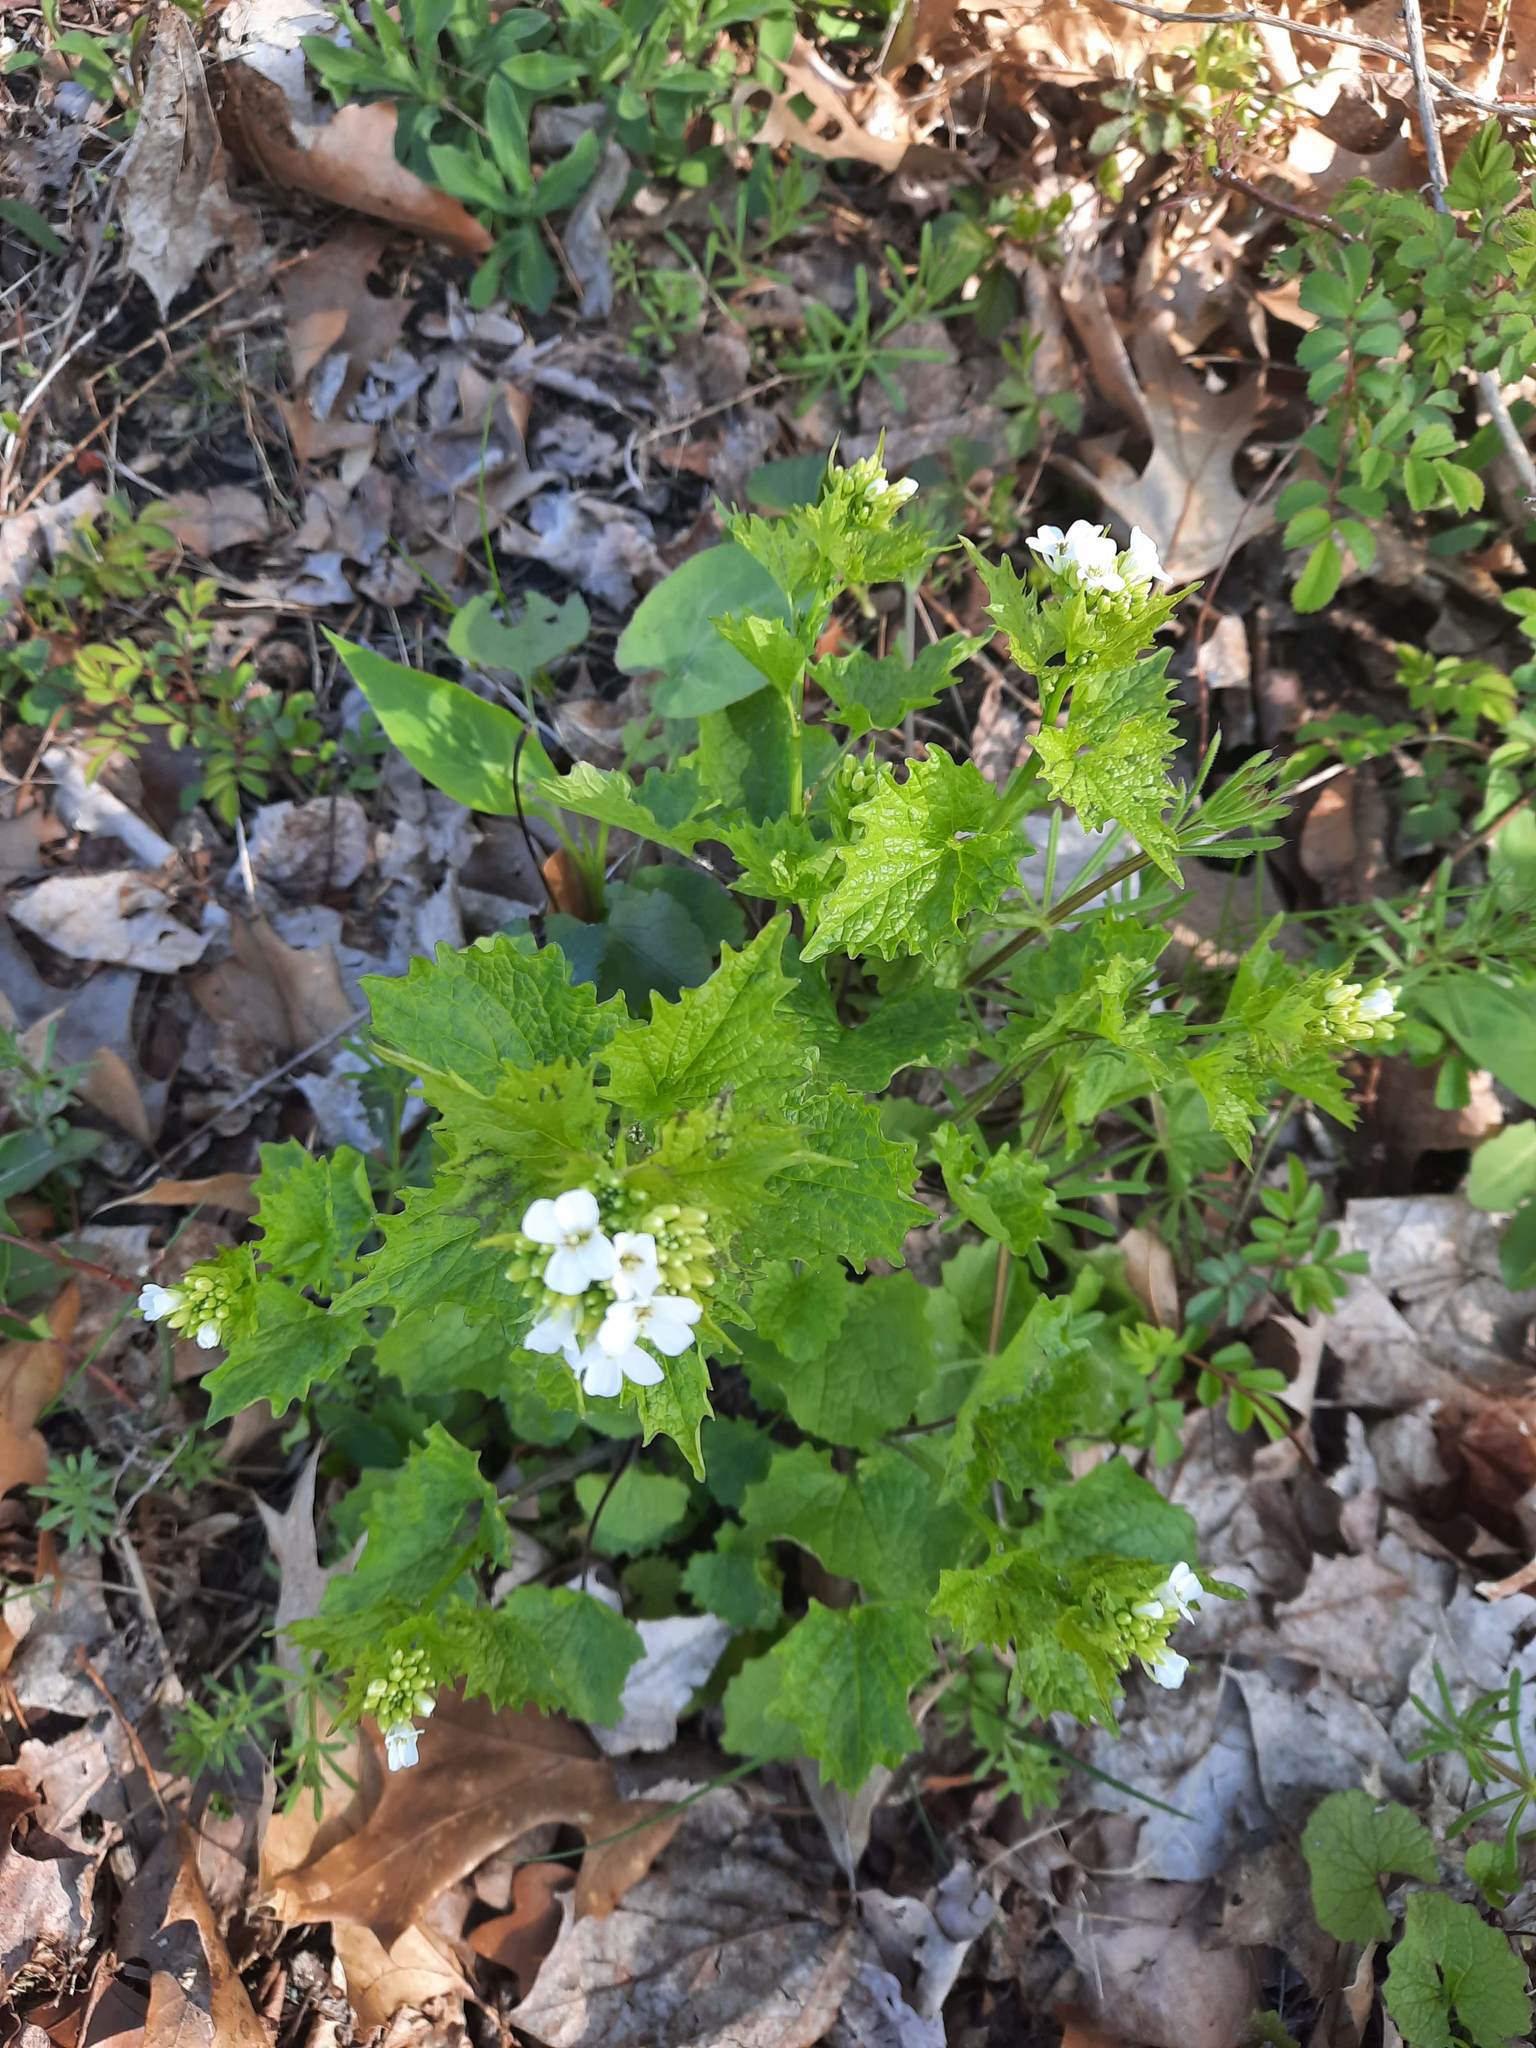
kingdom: Plantae
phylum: Tracheophyta
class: Magnoliopsida
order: Brassicales
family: Brassicaceae
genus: Alliaria
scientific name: Alliaria petiolata
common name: Garlic mustard
